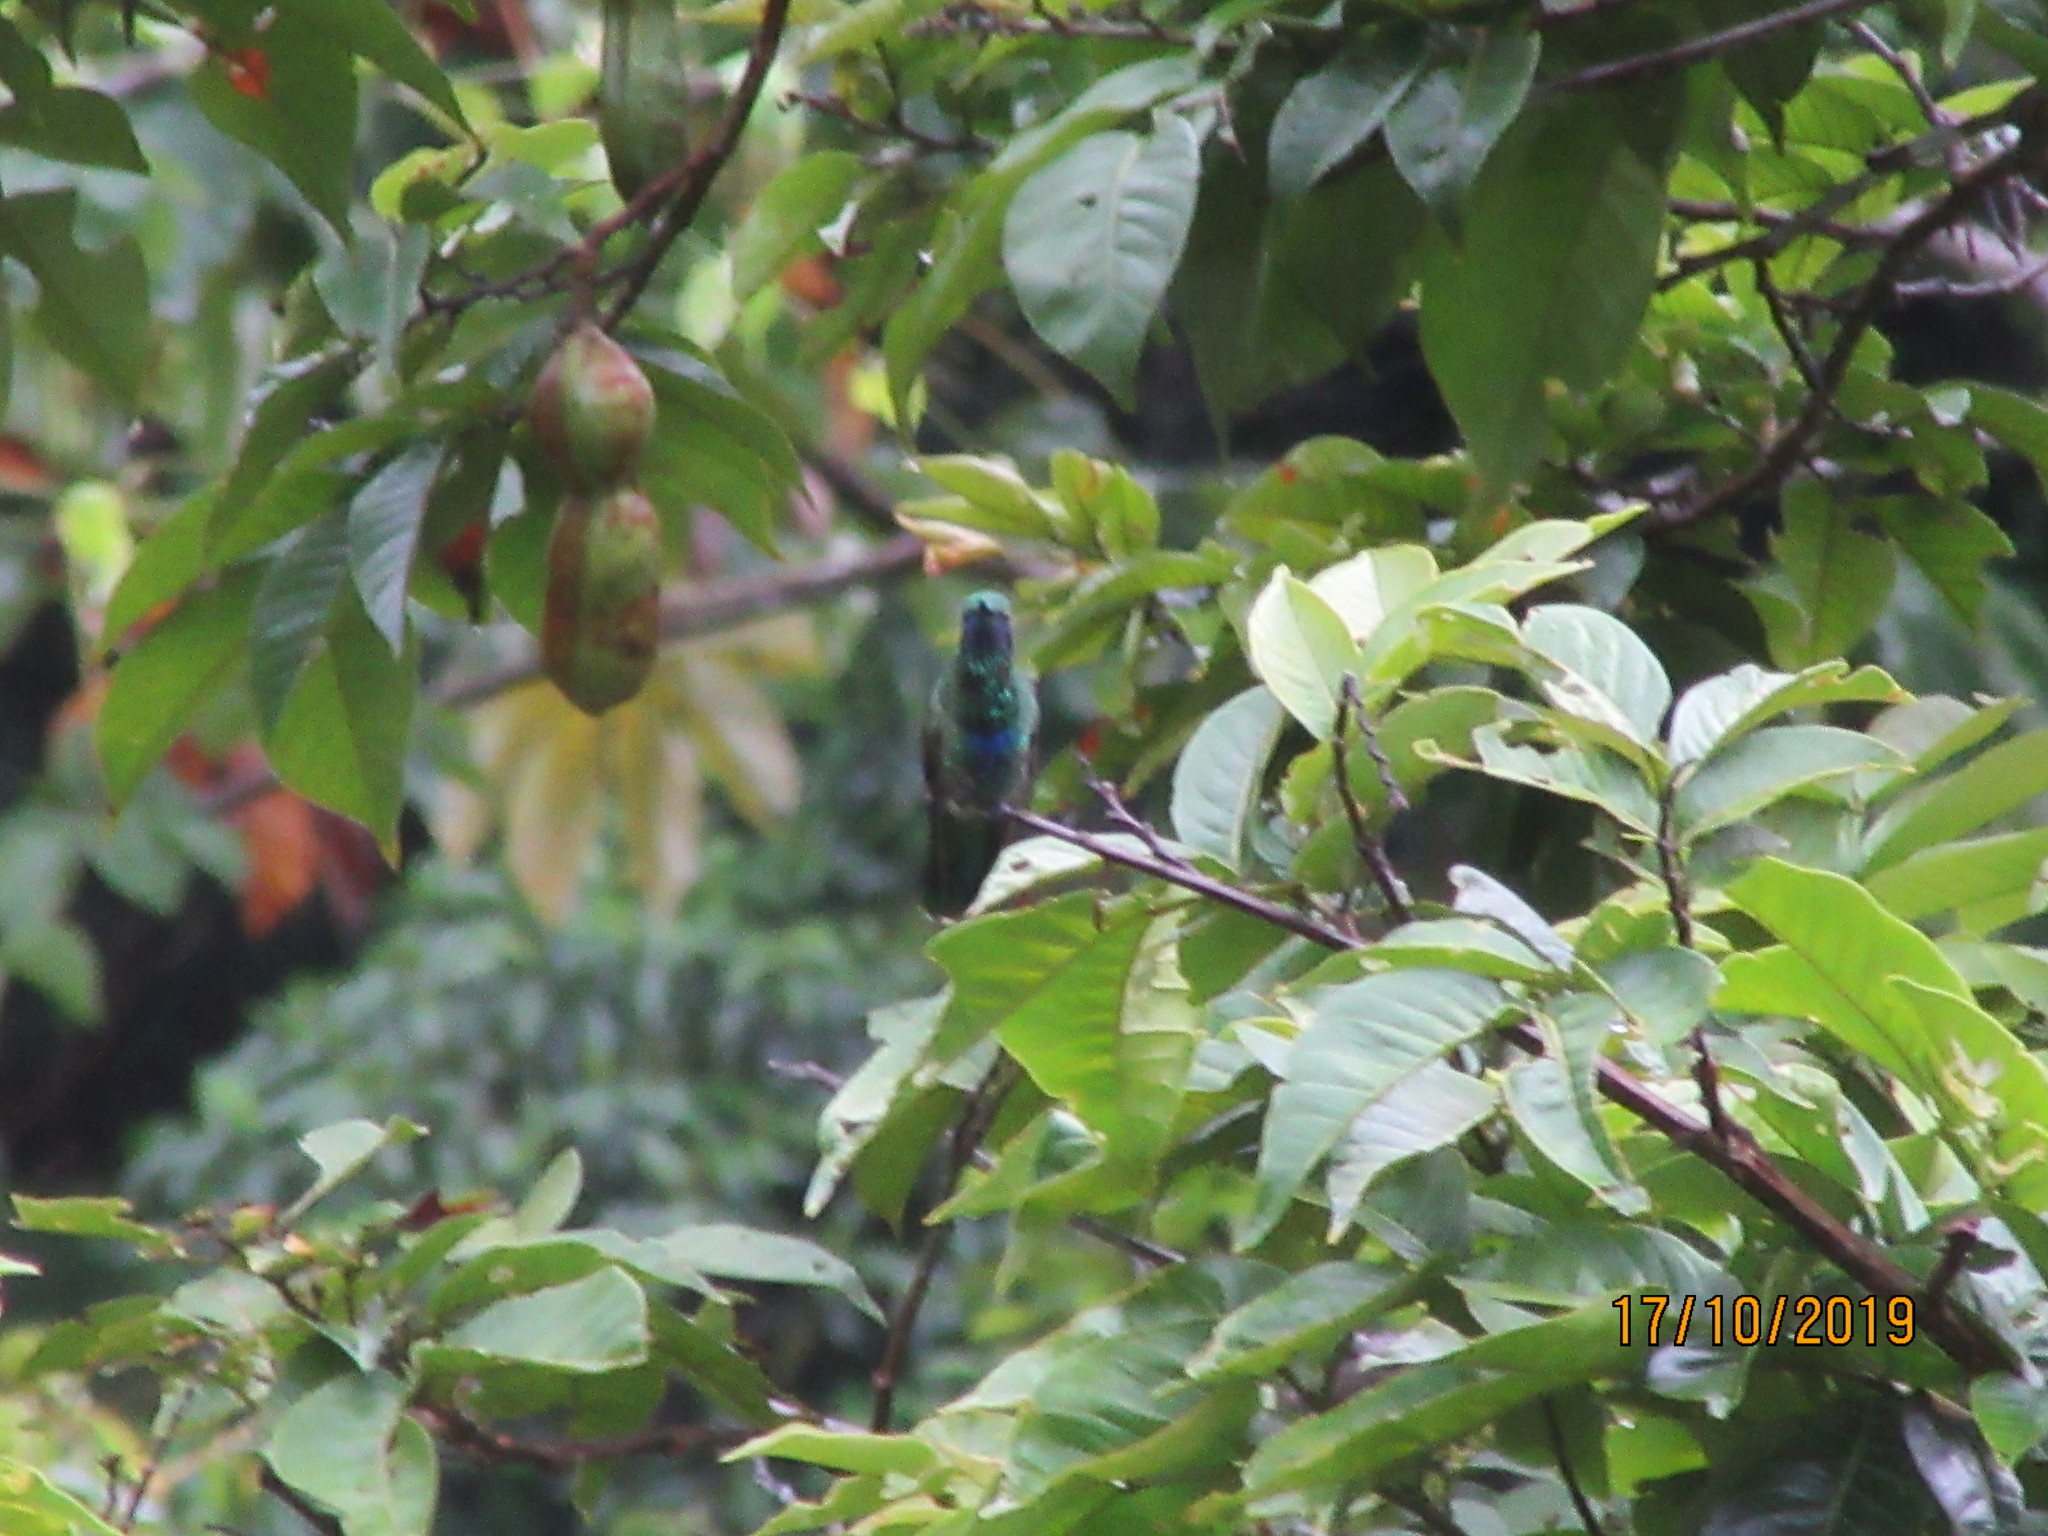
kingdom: Animalia
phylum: Chordata
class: Aves
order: Apodiformes
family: Trochilidae
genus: Colibri
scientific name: Colibri coruscans
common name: Sparkling violetear
